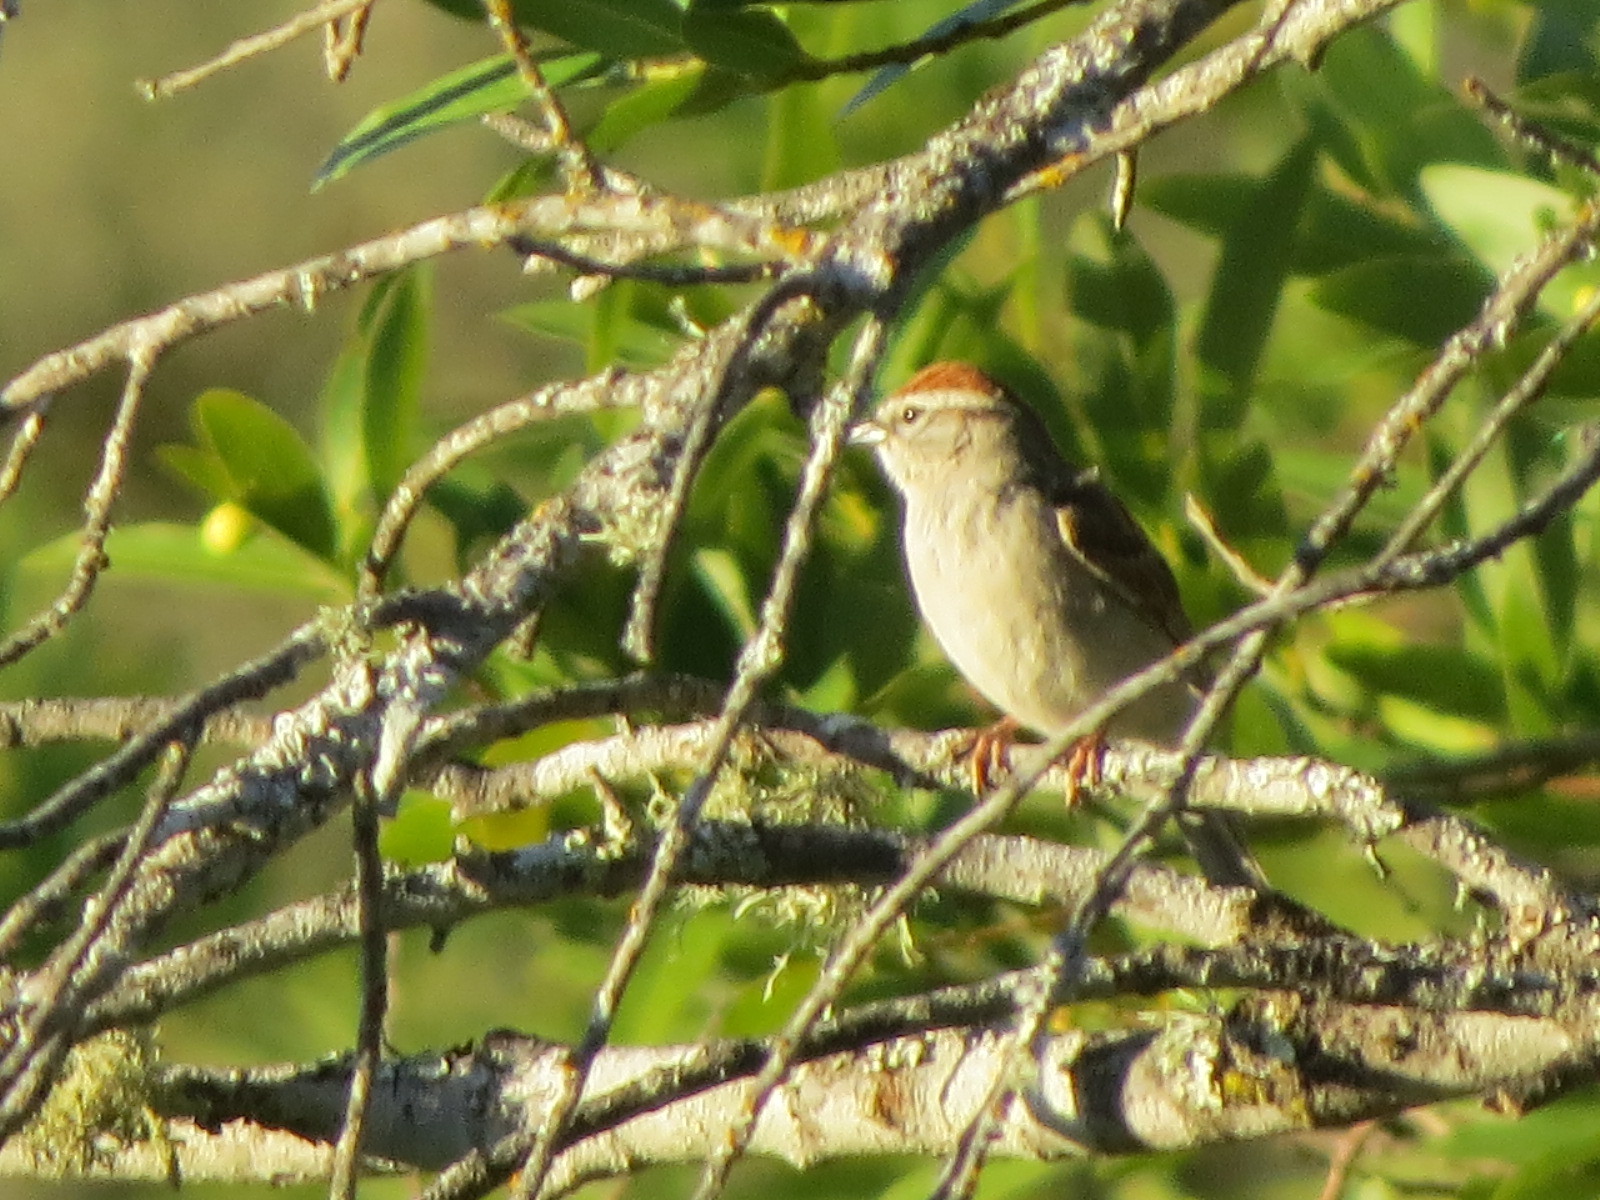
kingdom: Animalia
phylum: Chordata
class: Aves
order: Passeriformes
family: Passerellidae
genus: Spizella
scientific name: Spizella passerina
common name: Chipping sparrow
